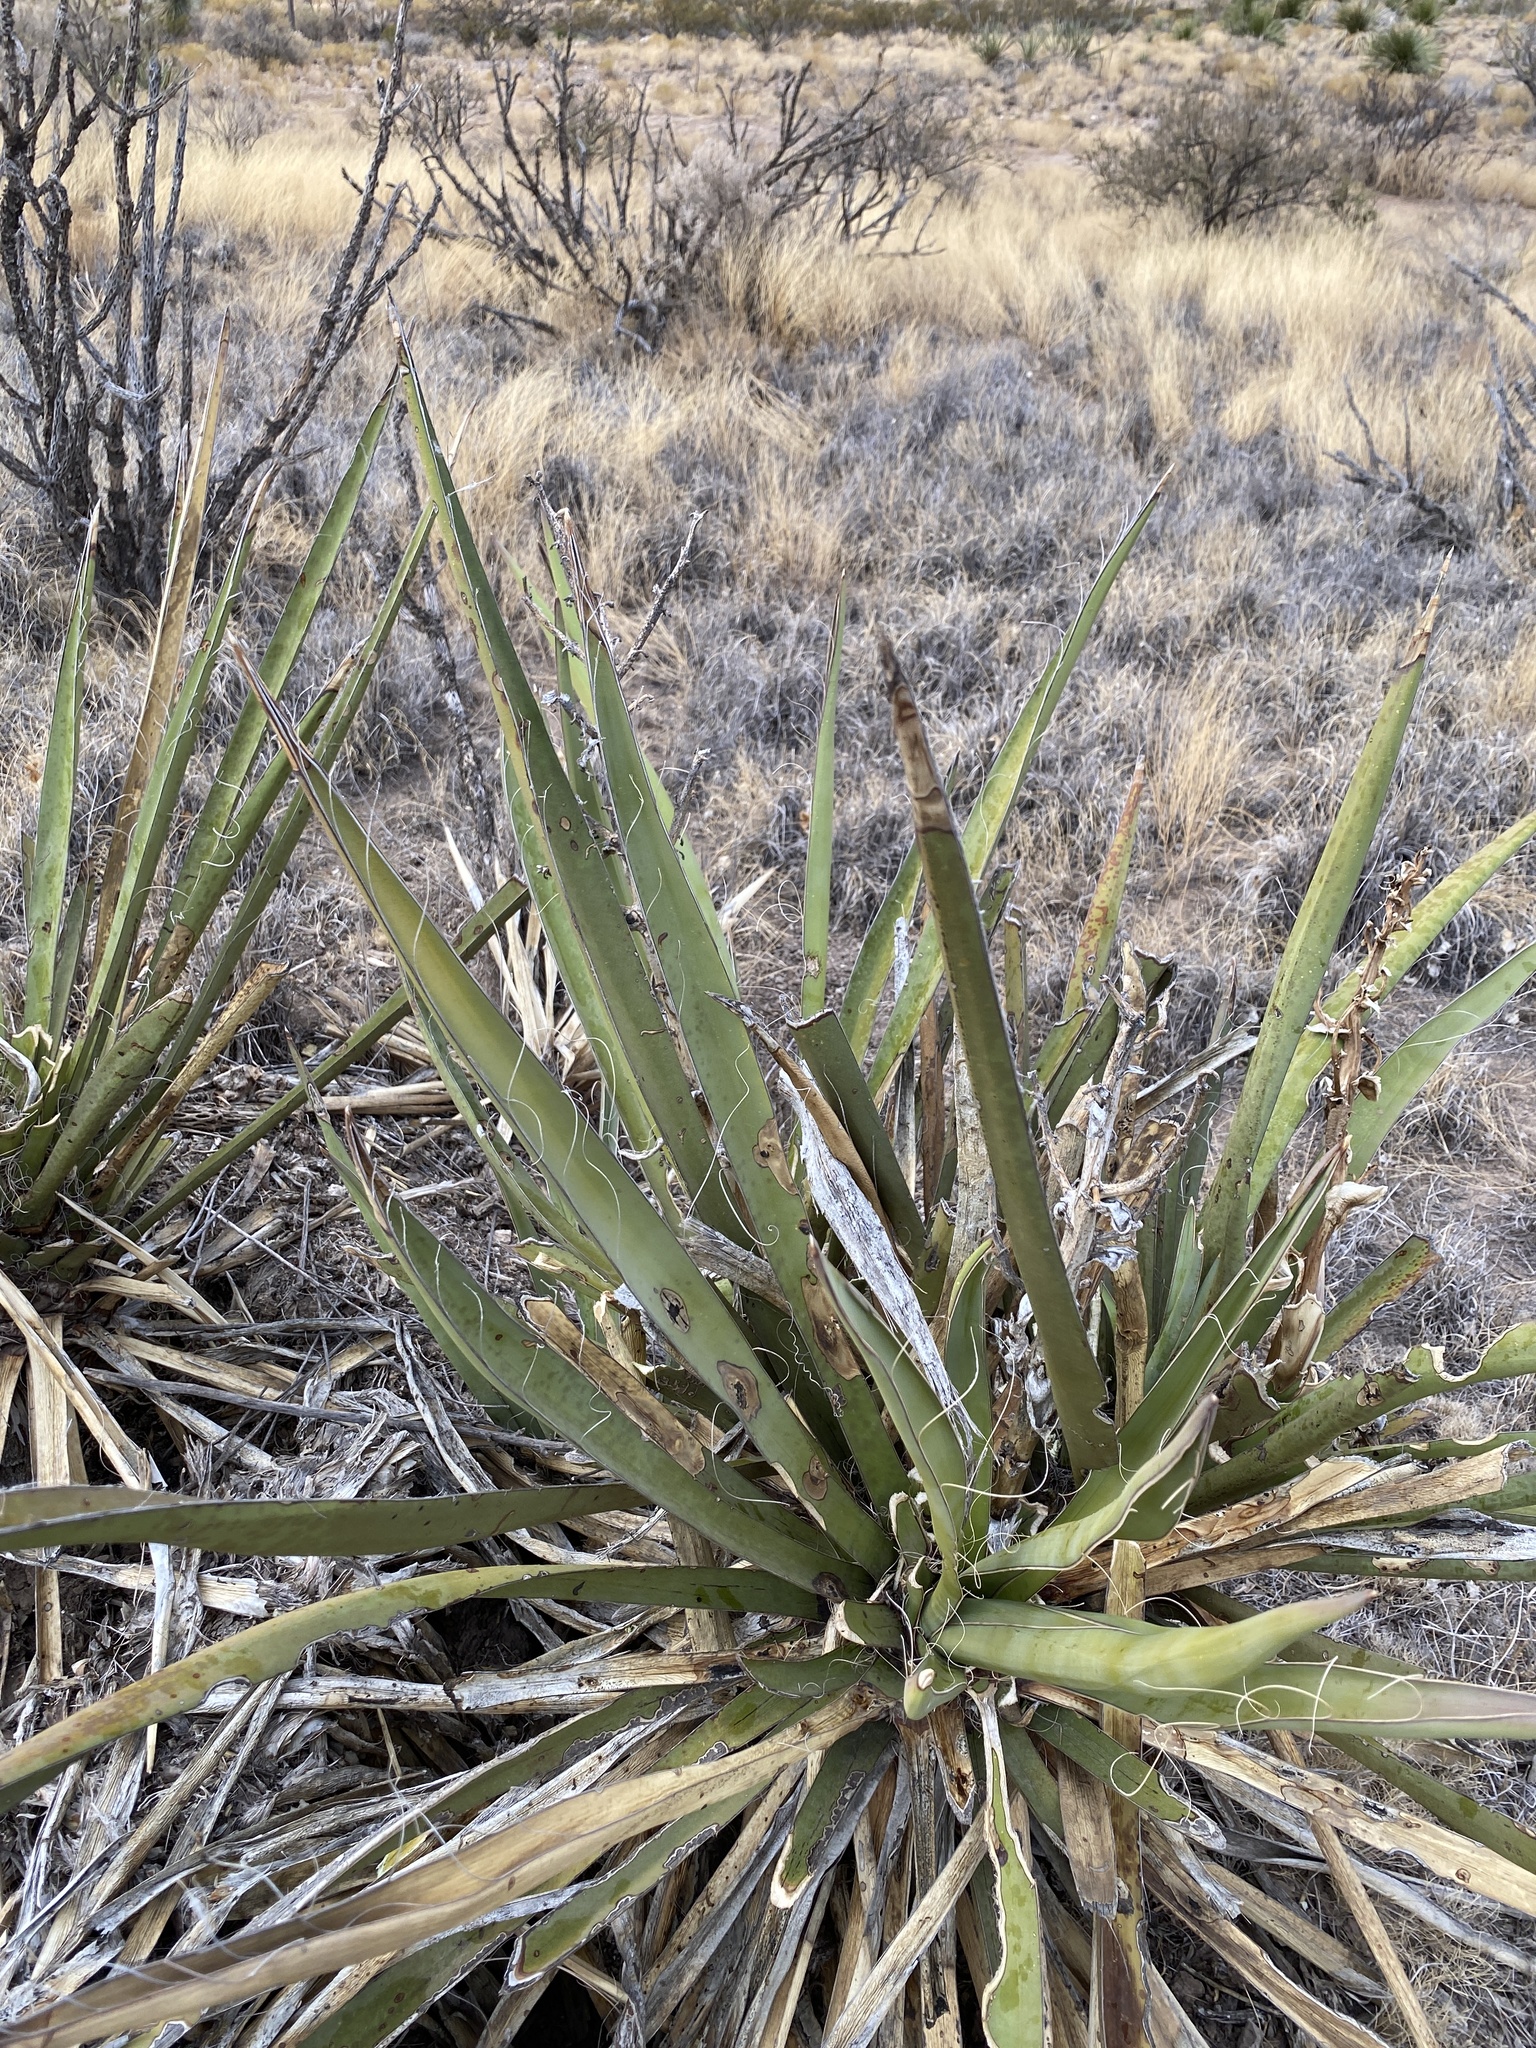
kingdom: Plantae
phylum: Tracheophyta
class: Liliopsida
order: Asparagales
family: Asparagaceae
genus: Yucca
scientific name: Yucca baccata
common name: Banana yucca
